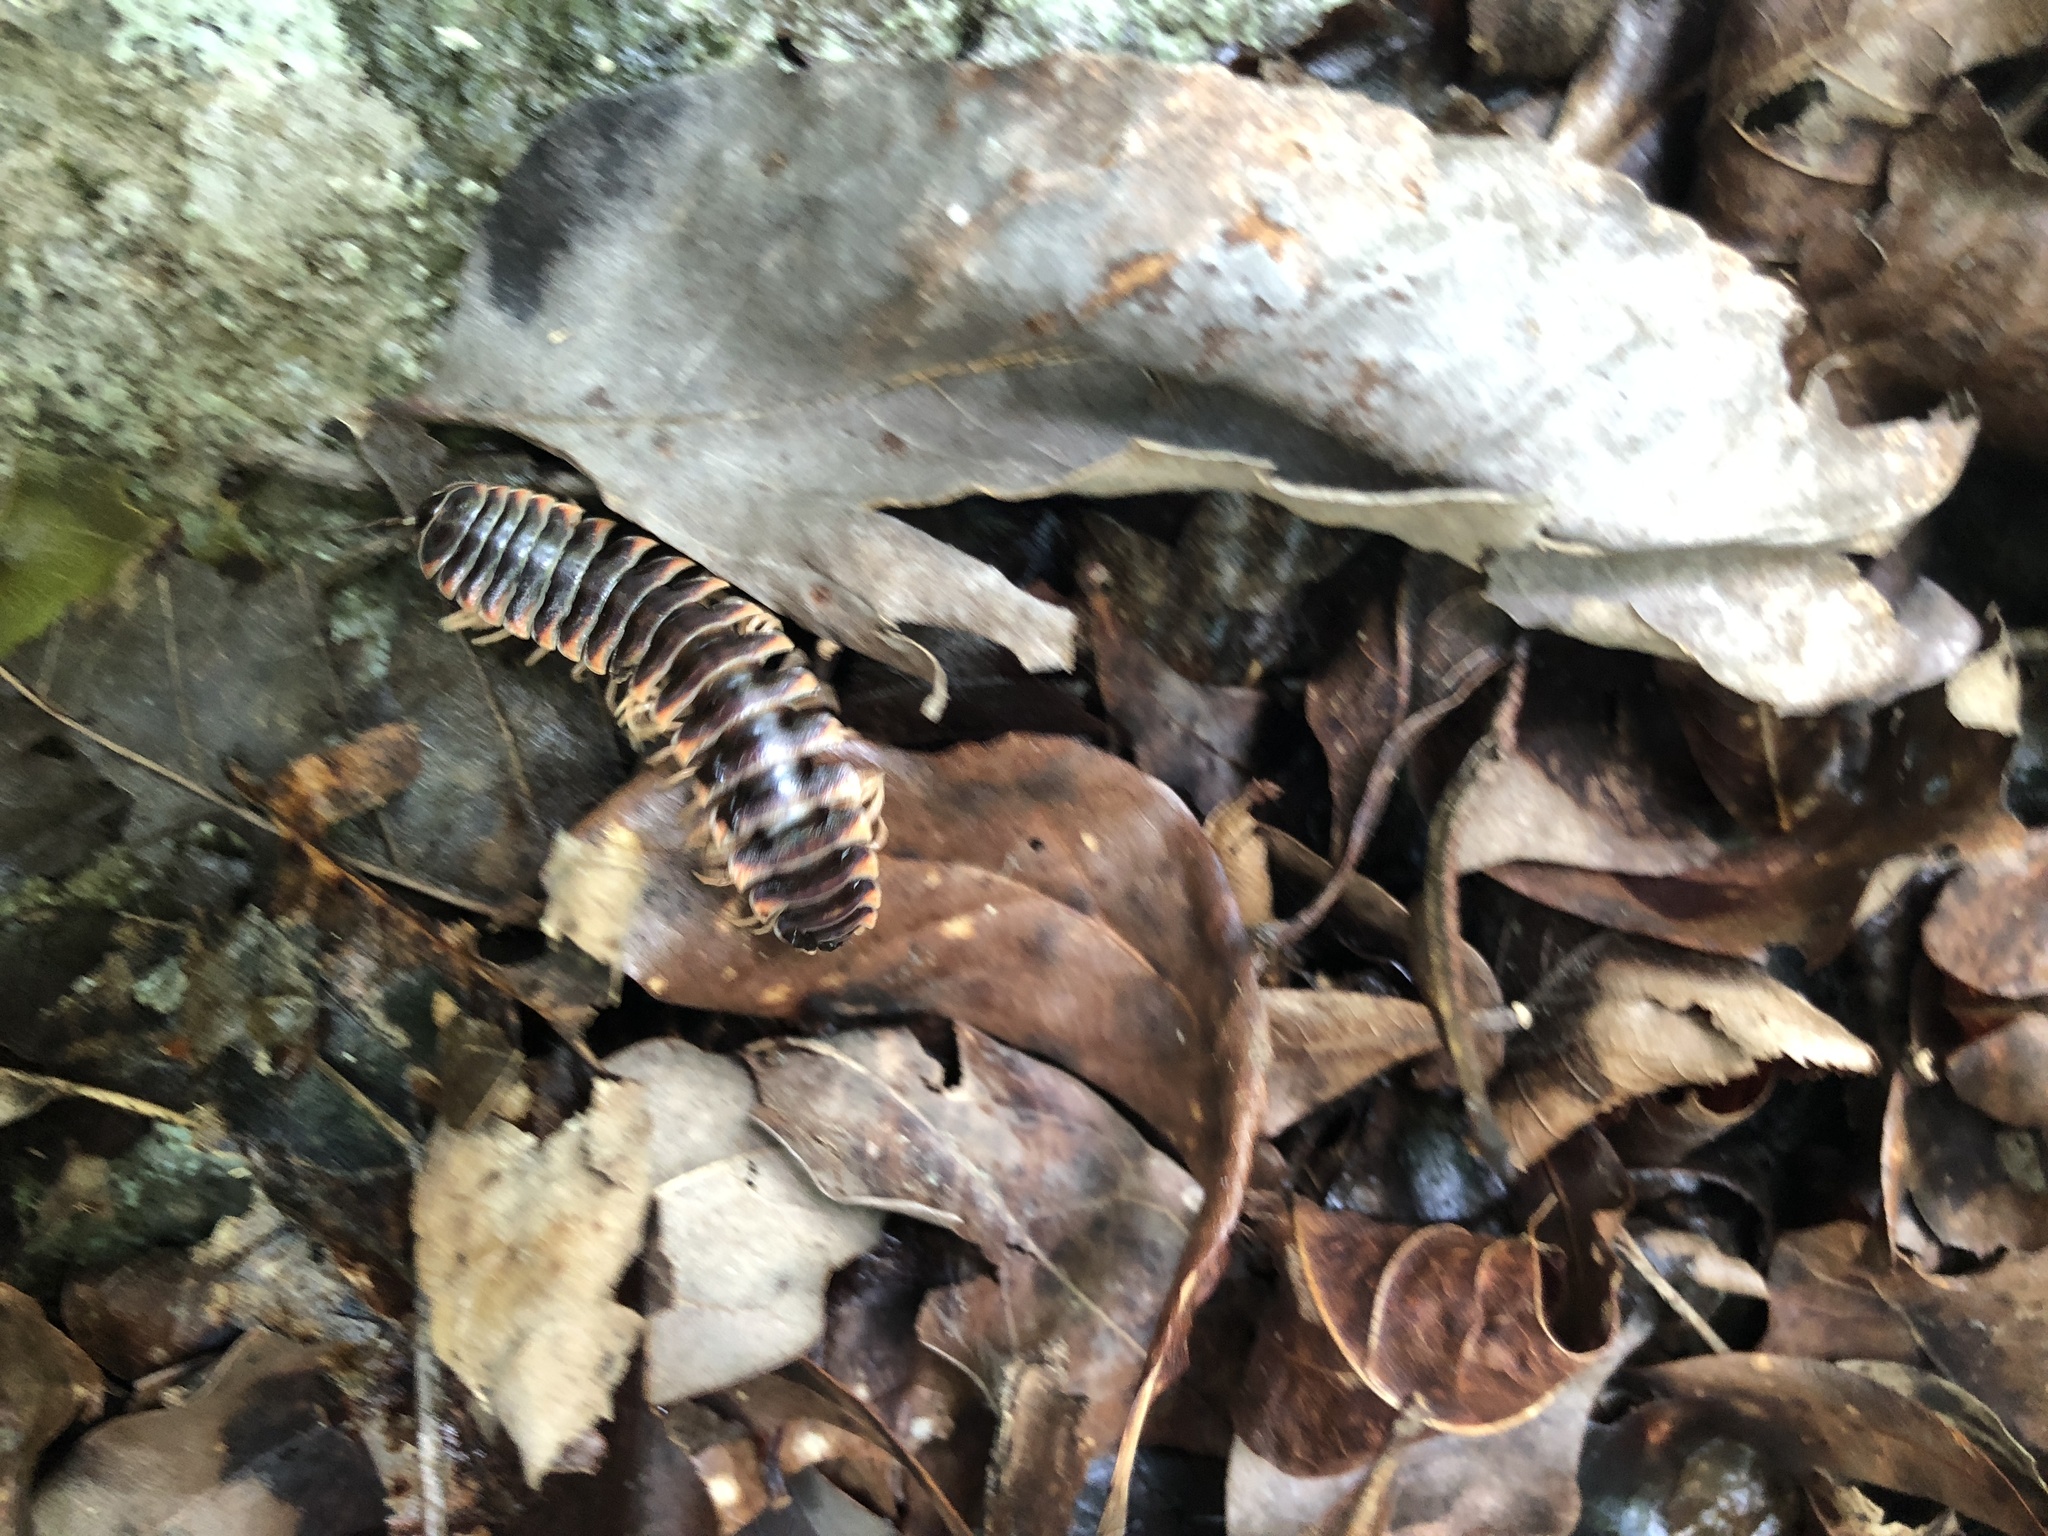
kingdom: Animalia
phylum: Arthropoda
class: Diplopoda
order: Polydesmida
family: Xystodesmidae
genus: Cherokia
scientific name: Cherokia georgiana
